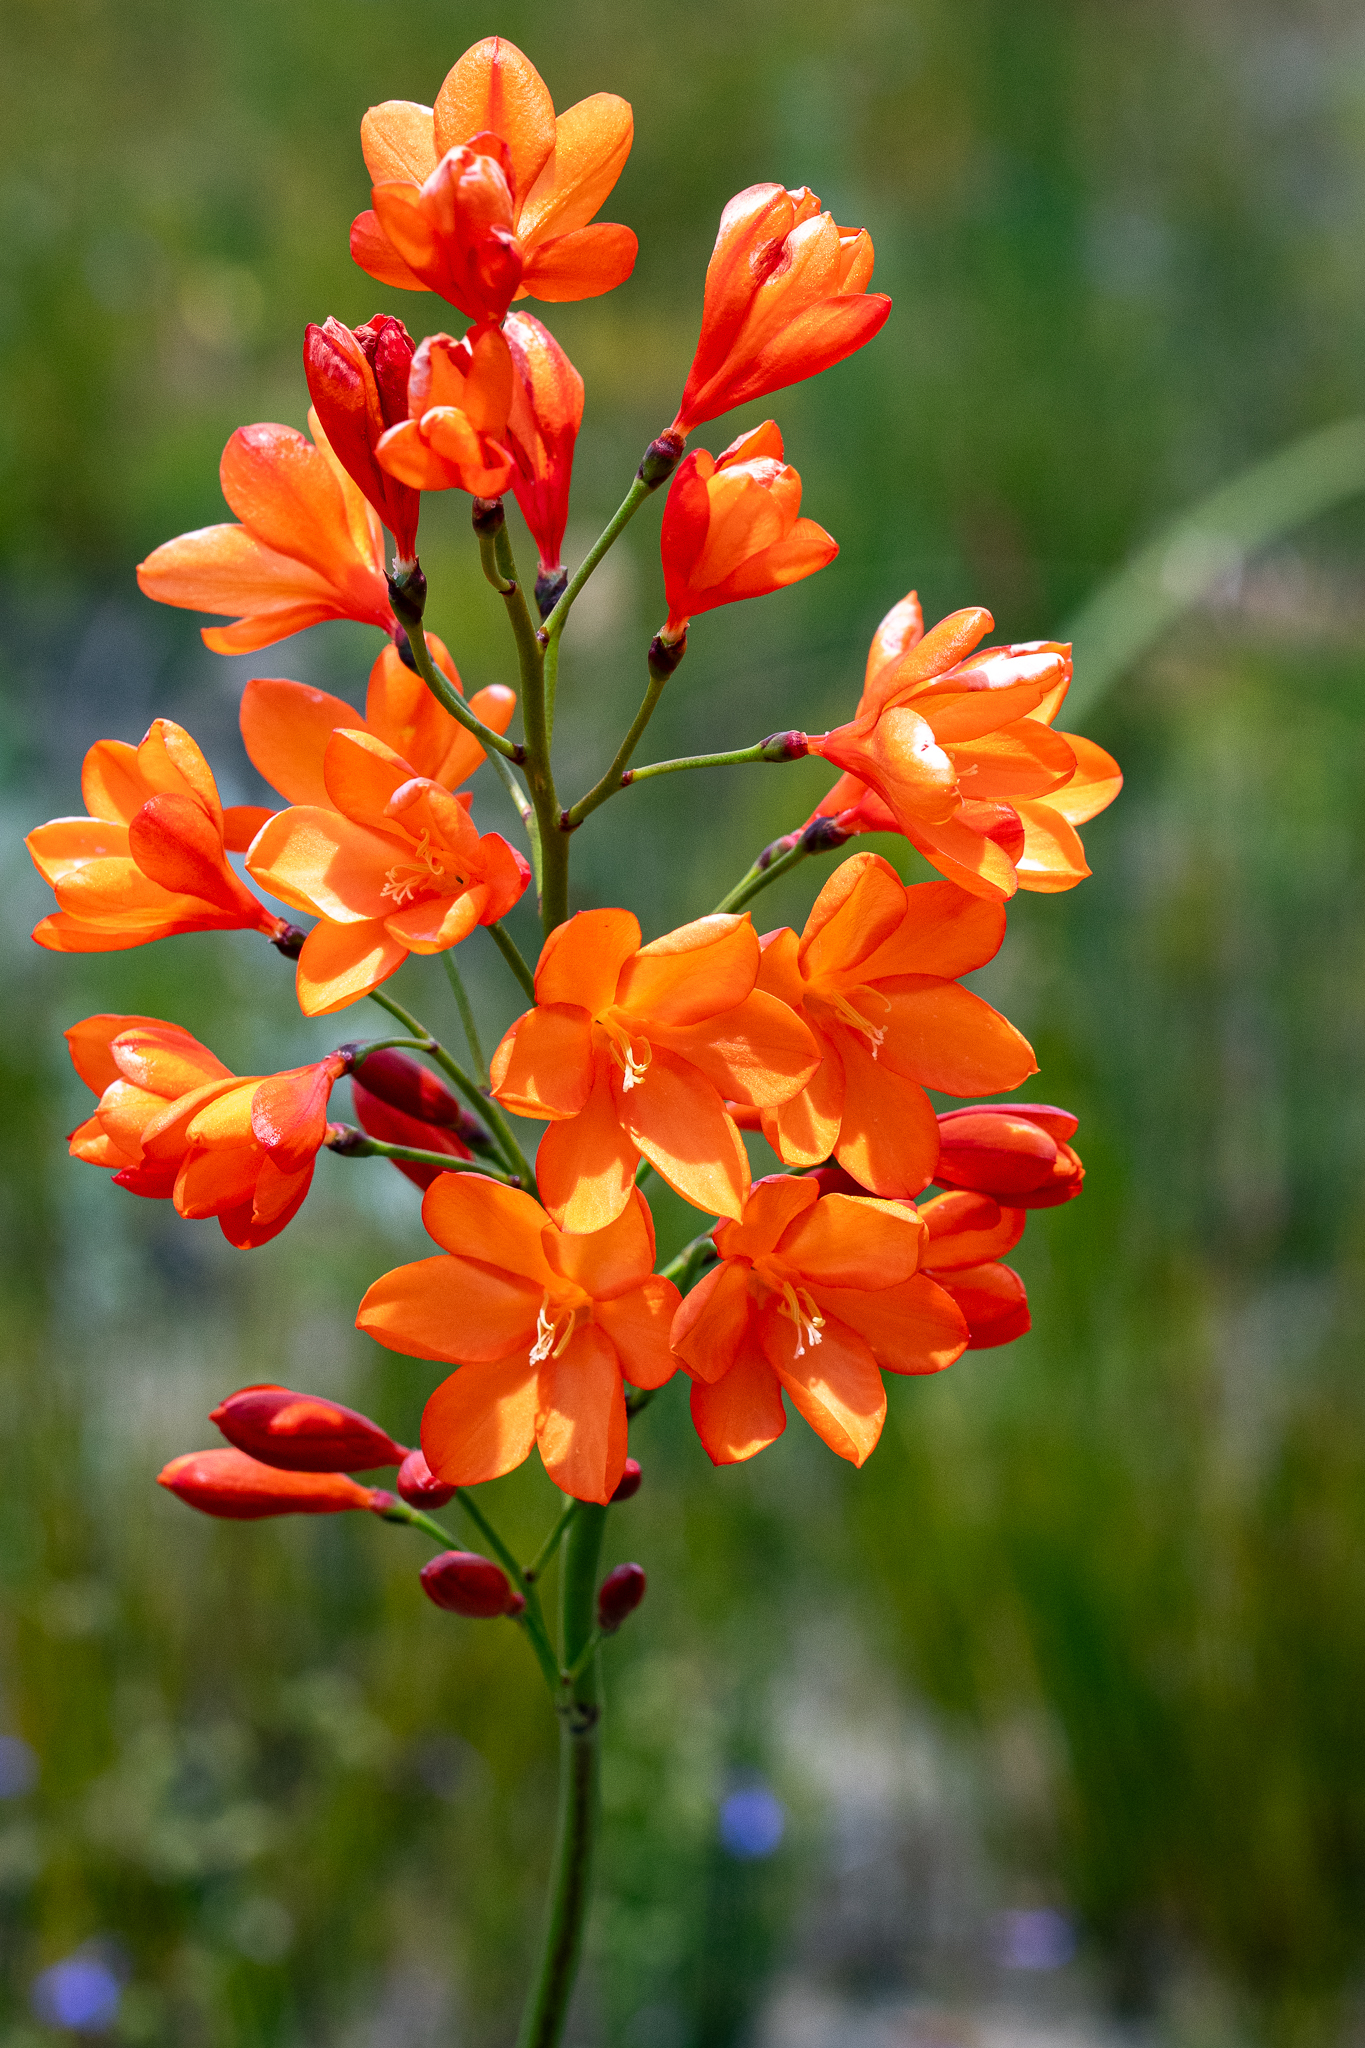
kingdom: Plantae
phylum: Tracheophyta
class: Liliopsida
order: Asparagales
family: Iridaceae
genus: Pillansia
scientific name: Pillansia templemannii
